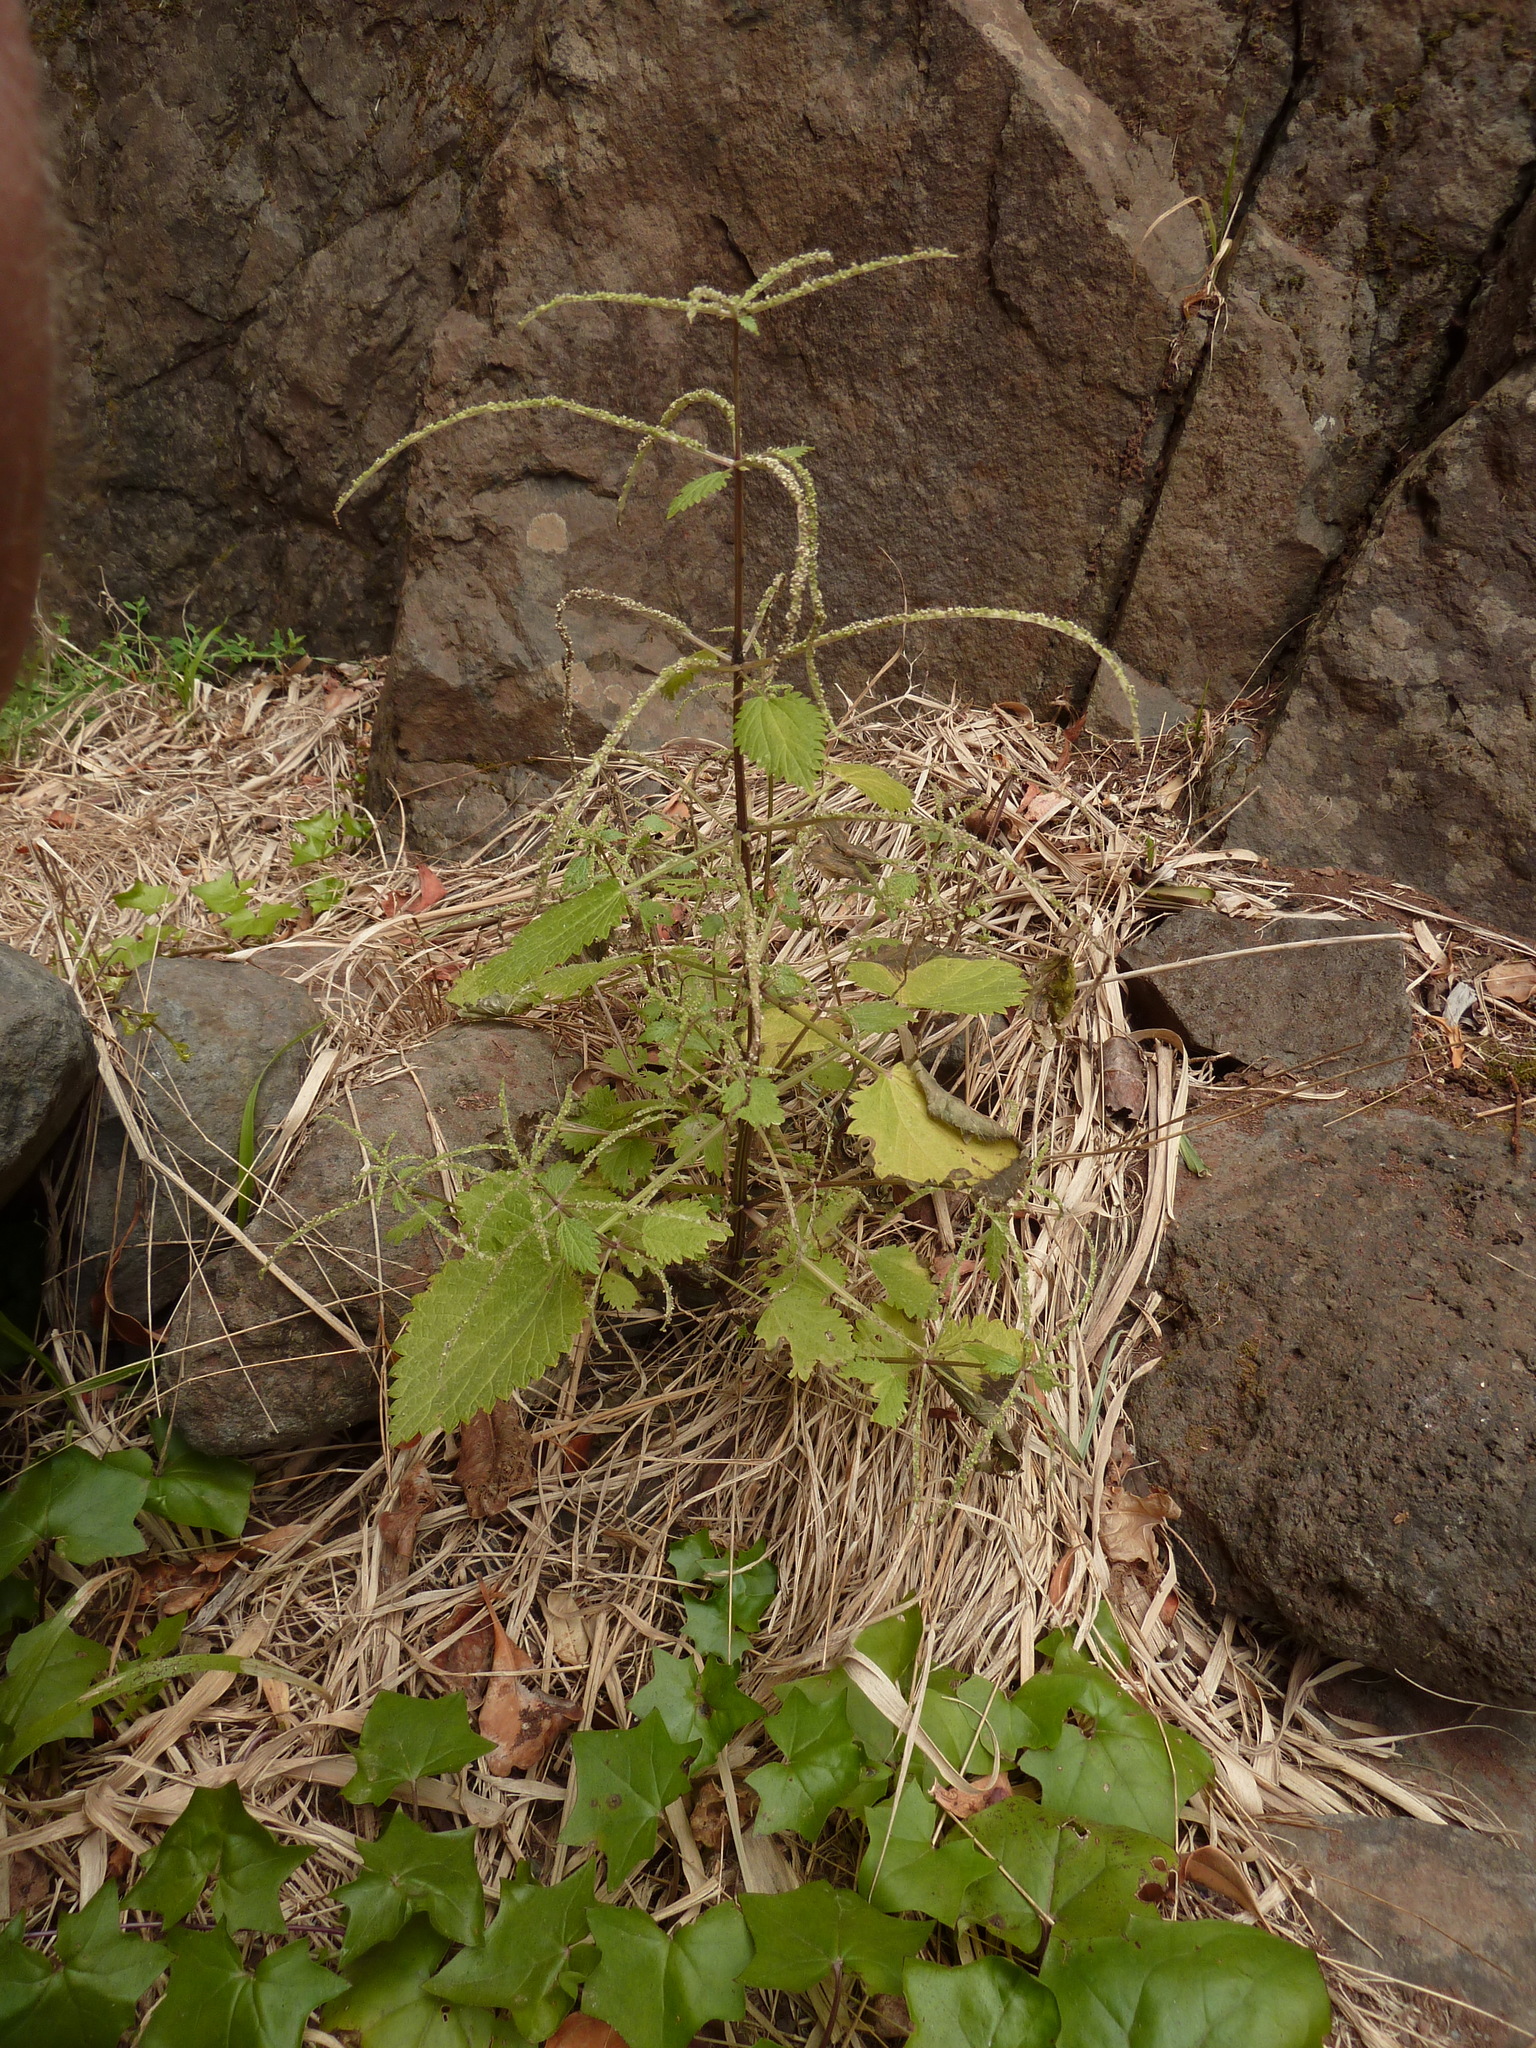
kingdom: Plantae
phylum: Tracheophyta
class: Magnoliopsida
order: Rosales
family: Urticaceae
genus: Urtica
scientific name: Urtica membranacea
